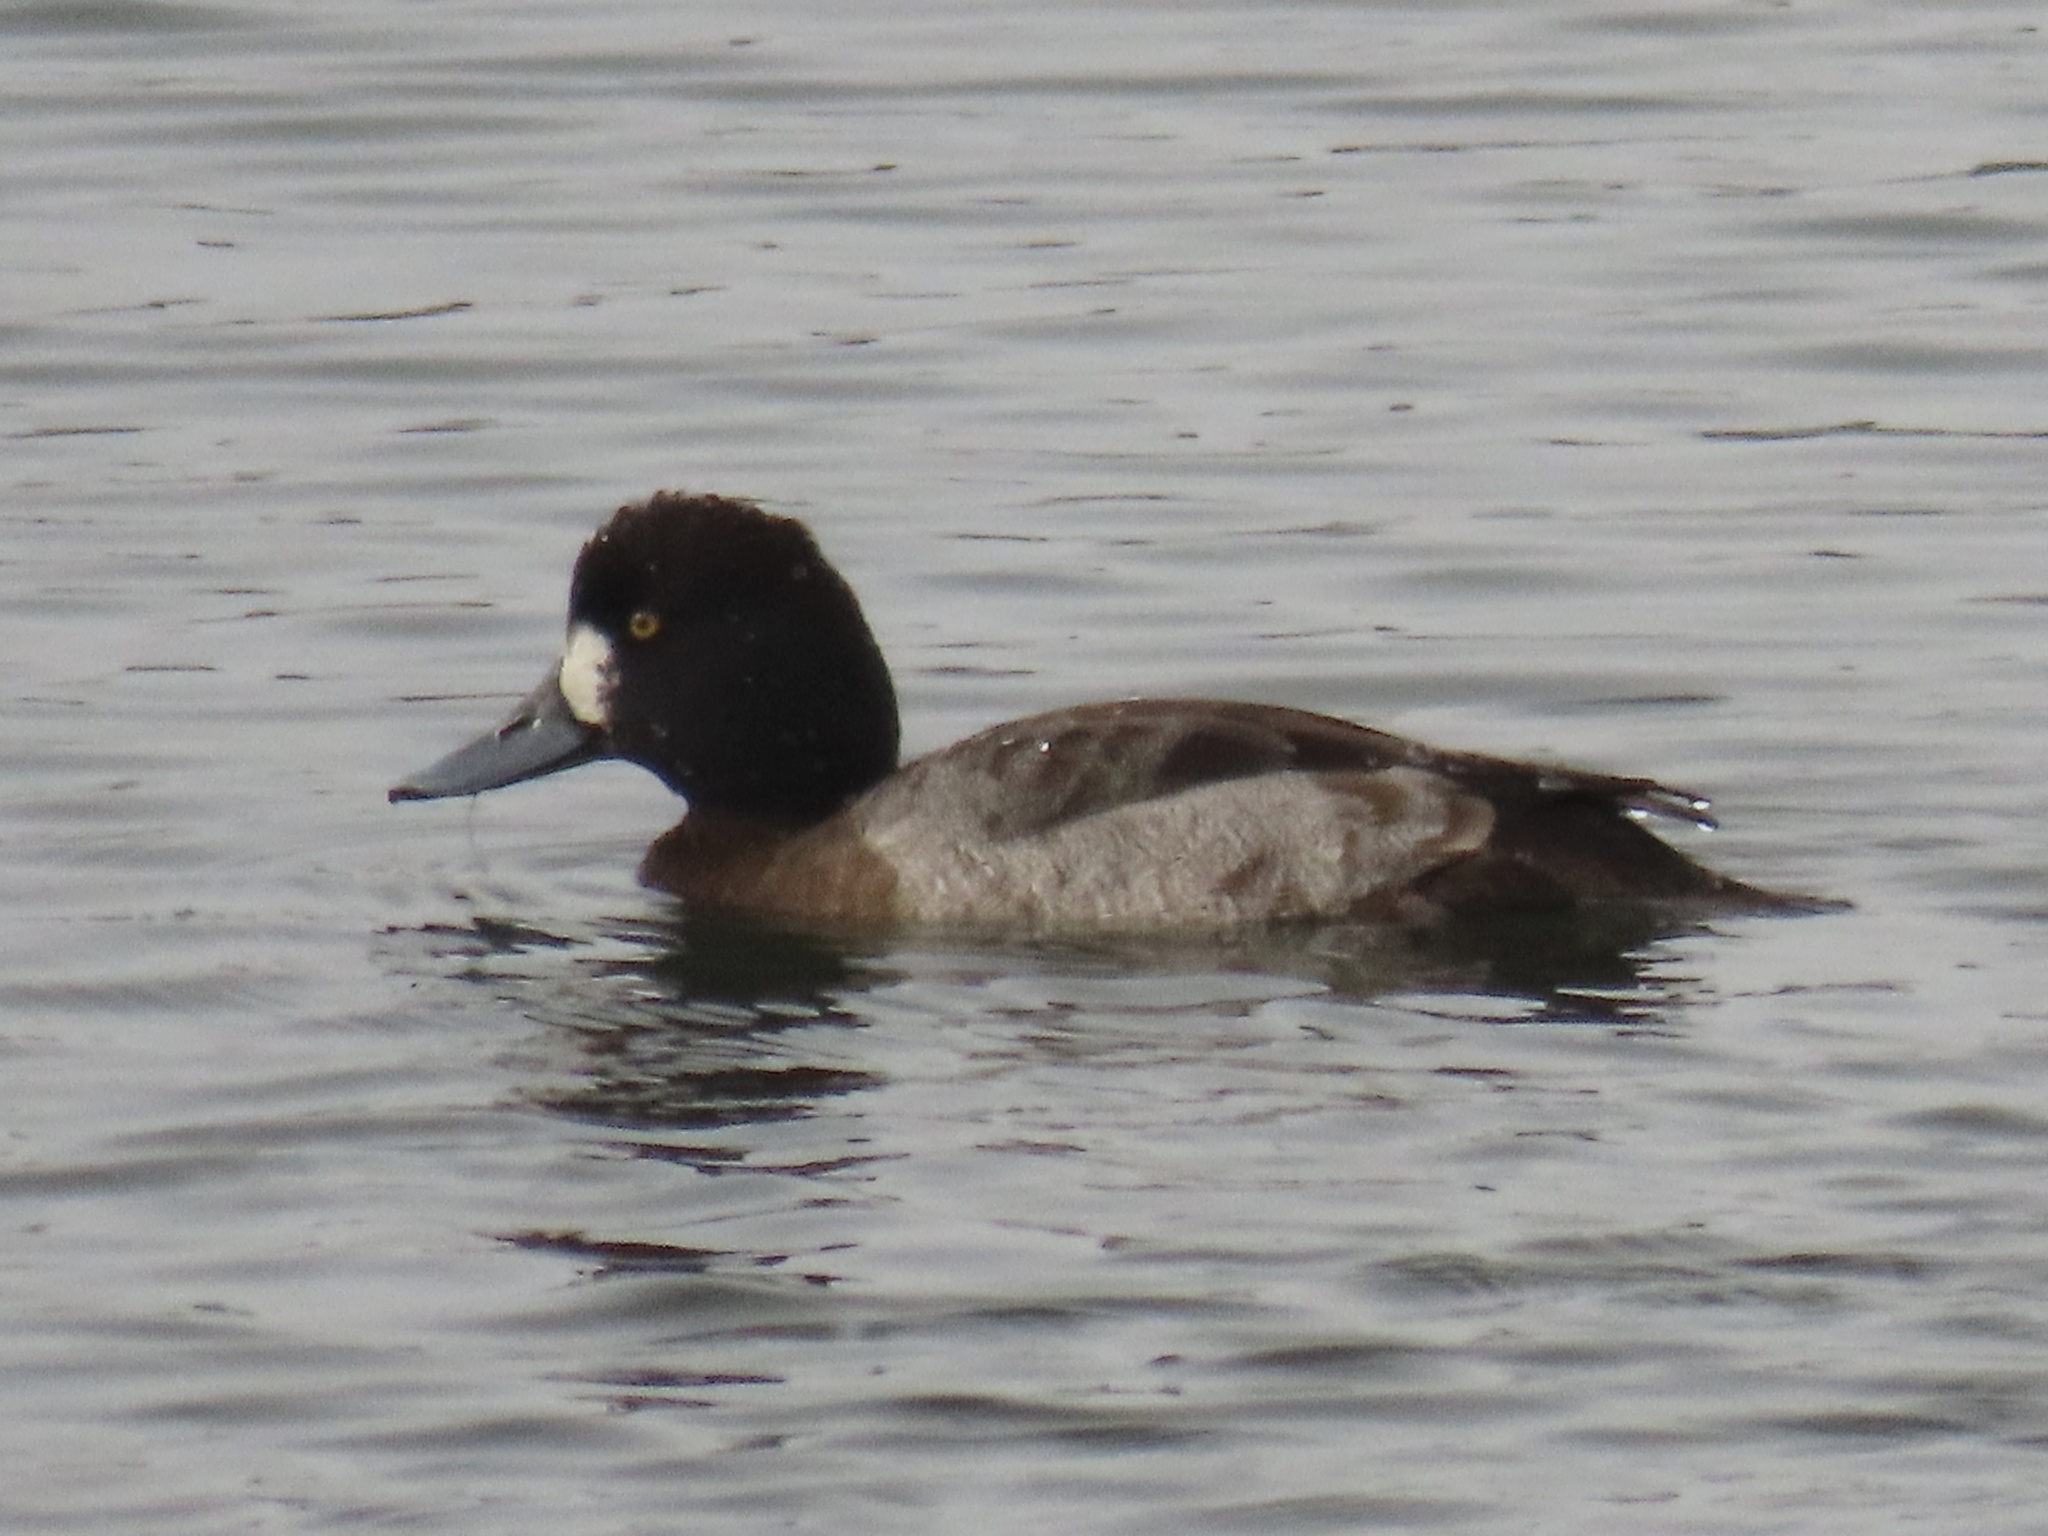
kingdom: Animalia
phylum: Chordata
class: Aves
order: Anseriformes
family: Anatidae
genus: Aythya
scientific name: Aythya affinis
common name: Lesser scaup
